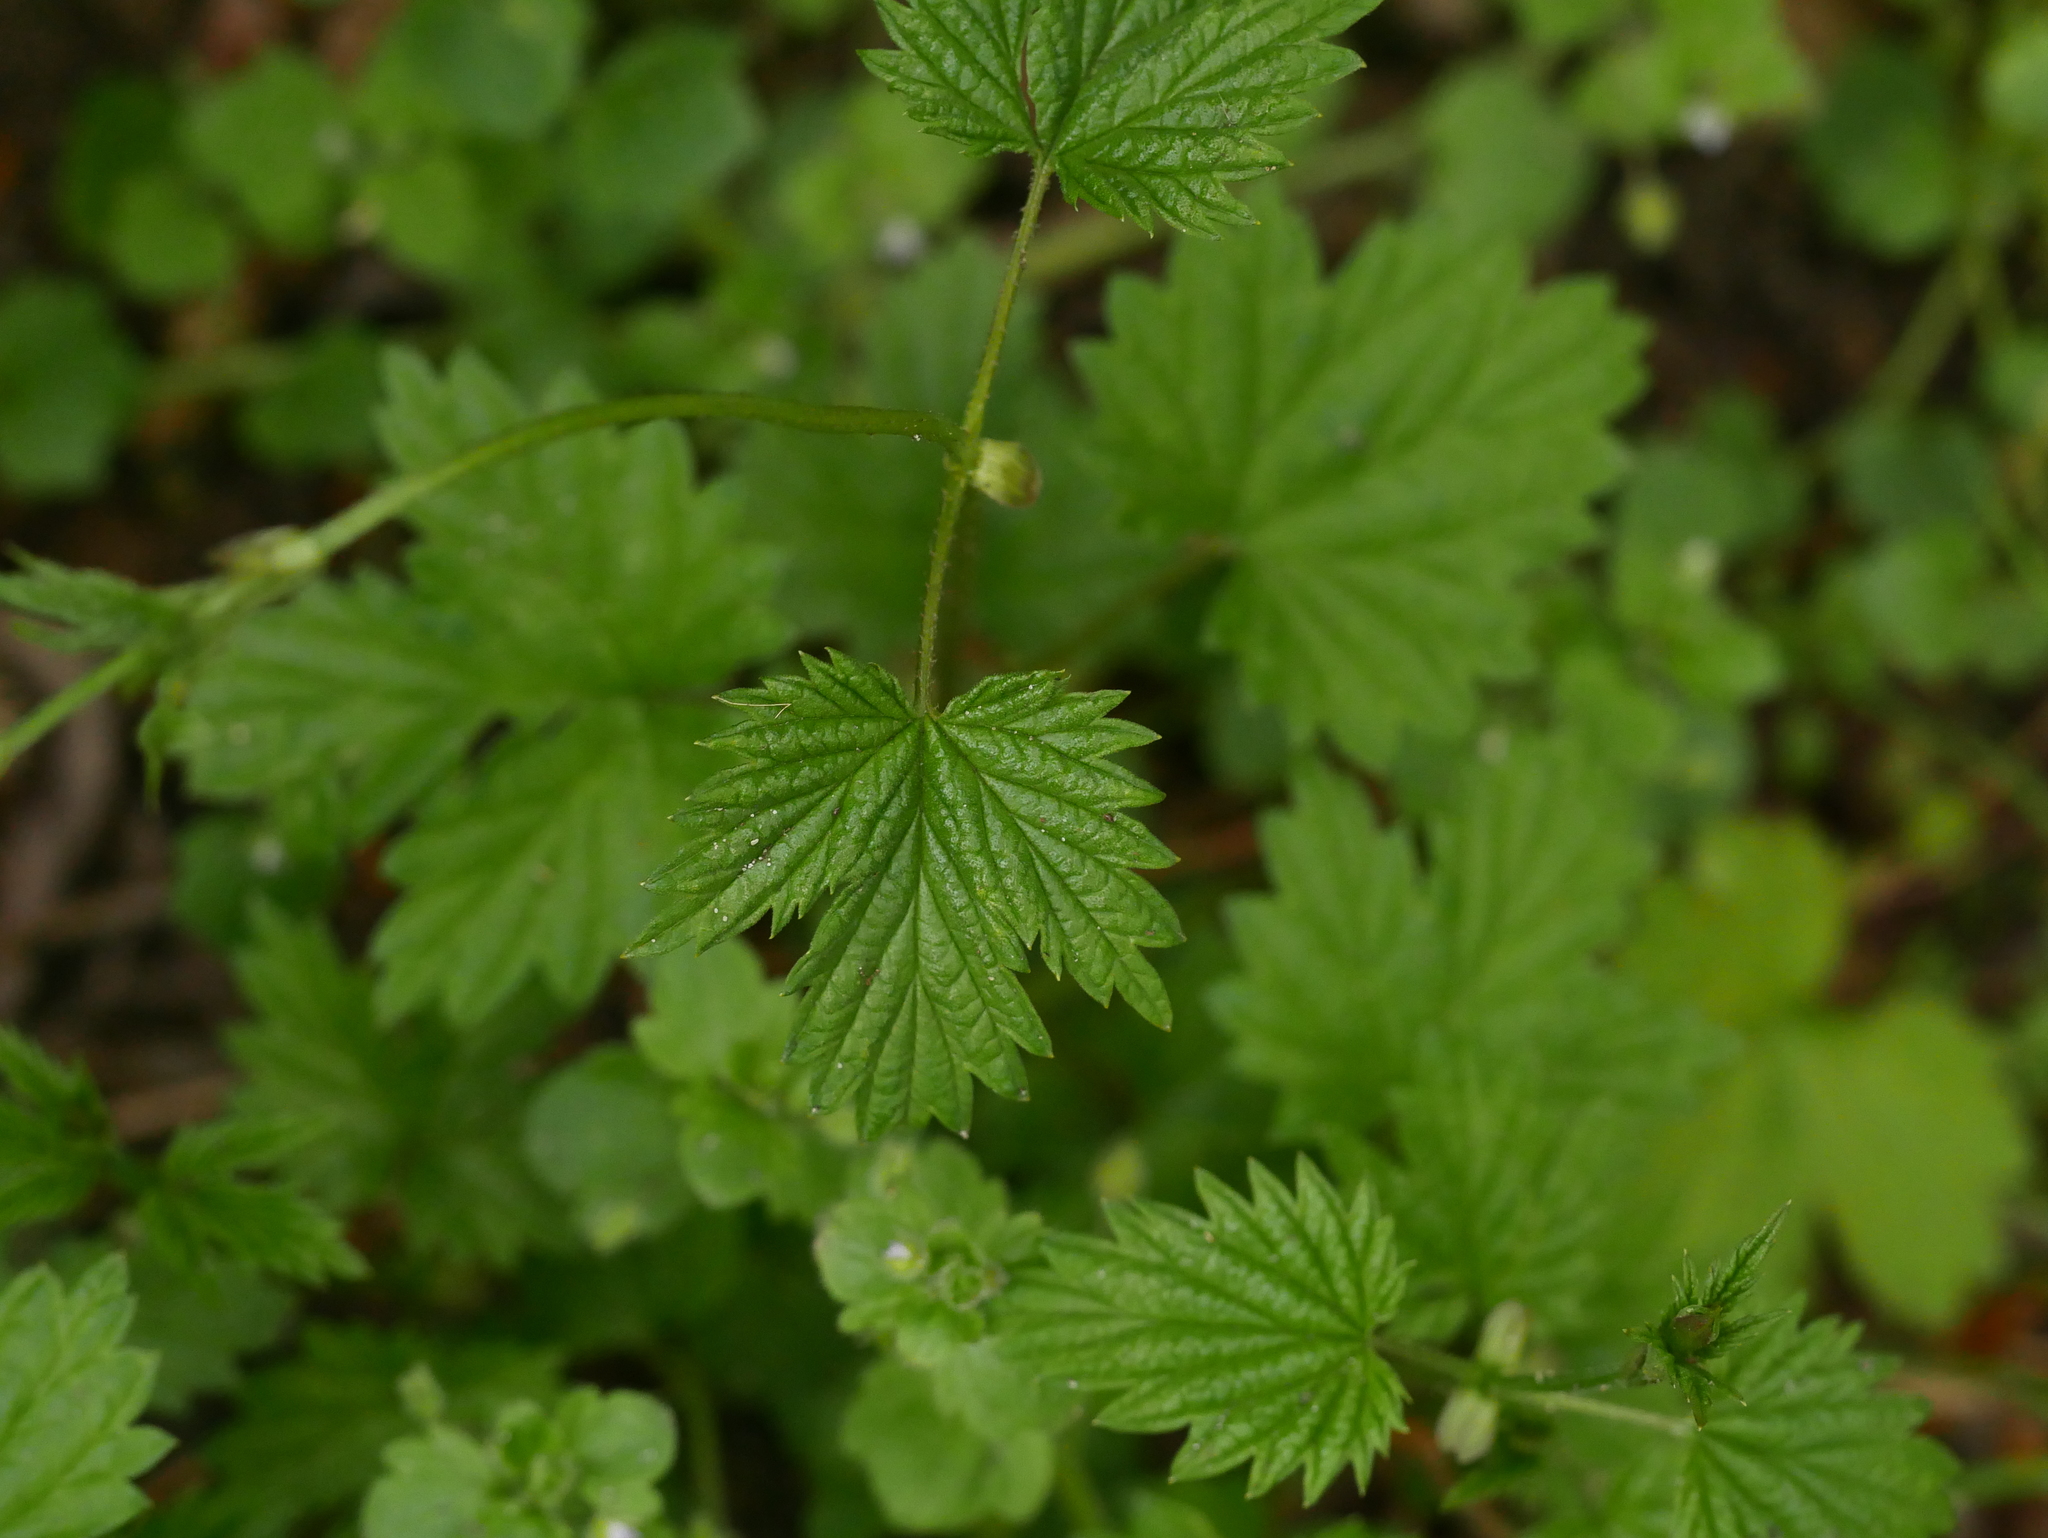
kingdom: Plantae
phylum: Tracheophyta
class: Magnoliopsida
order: Rosales
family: Cannabaceae
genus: Humulus
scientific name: Humulus lupulus
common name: Hop
